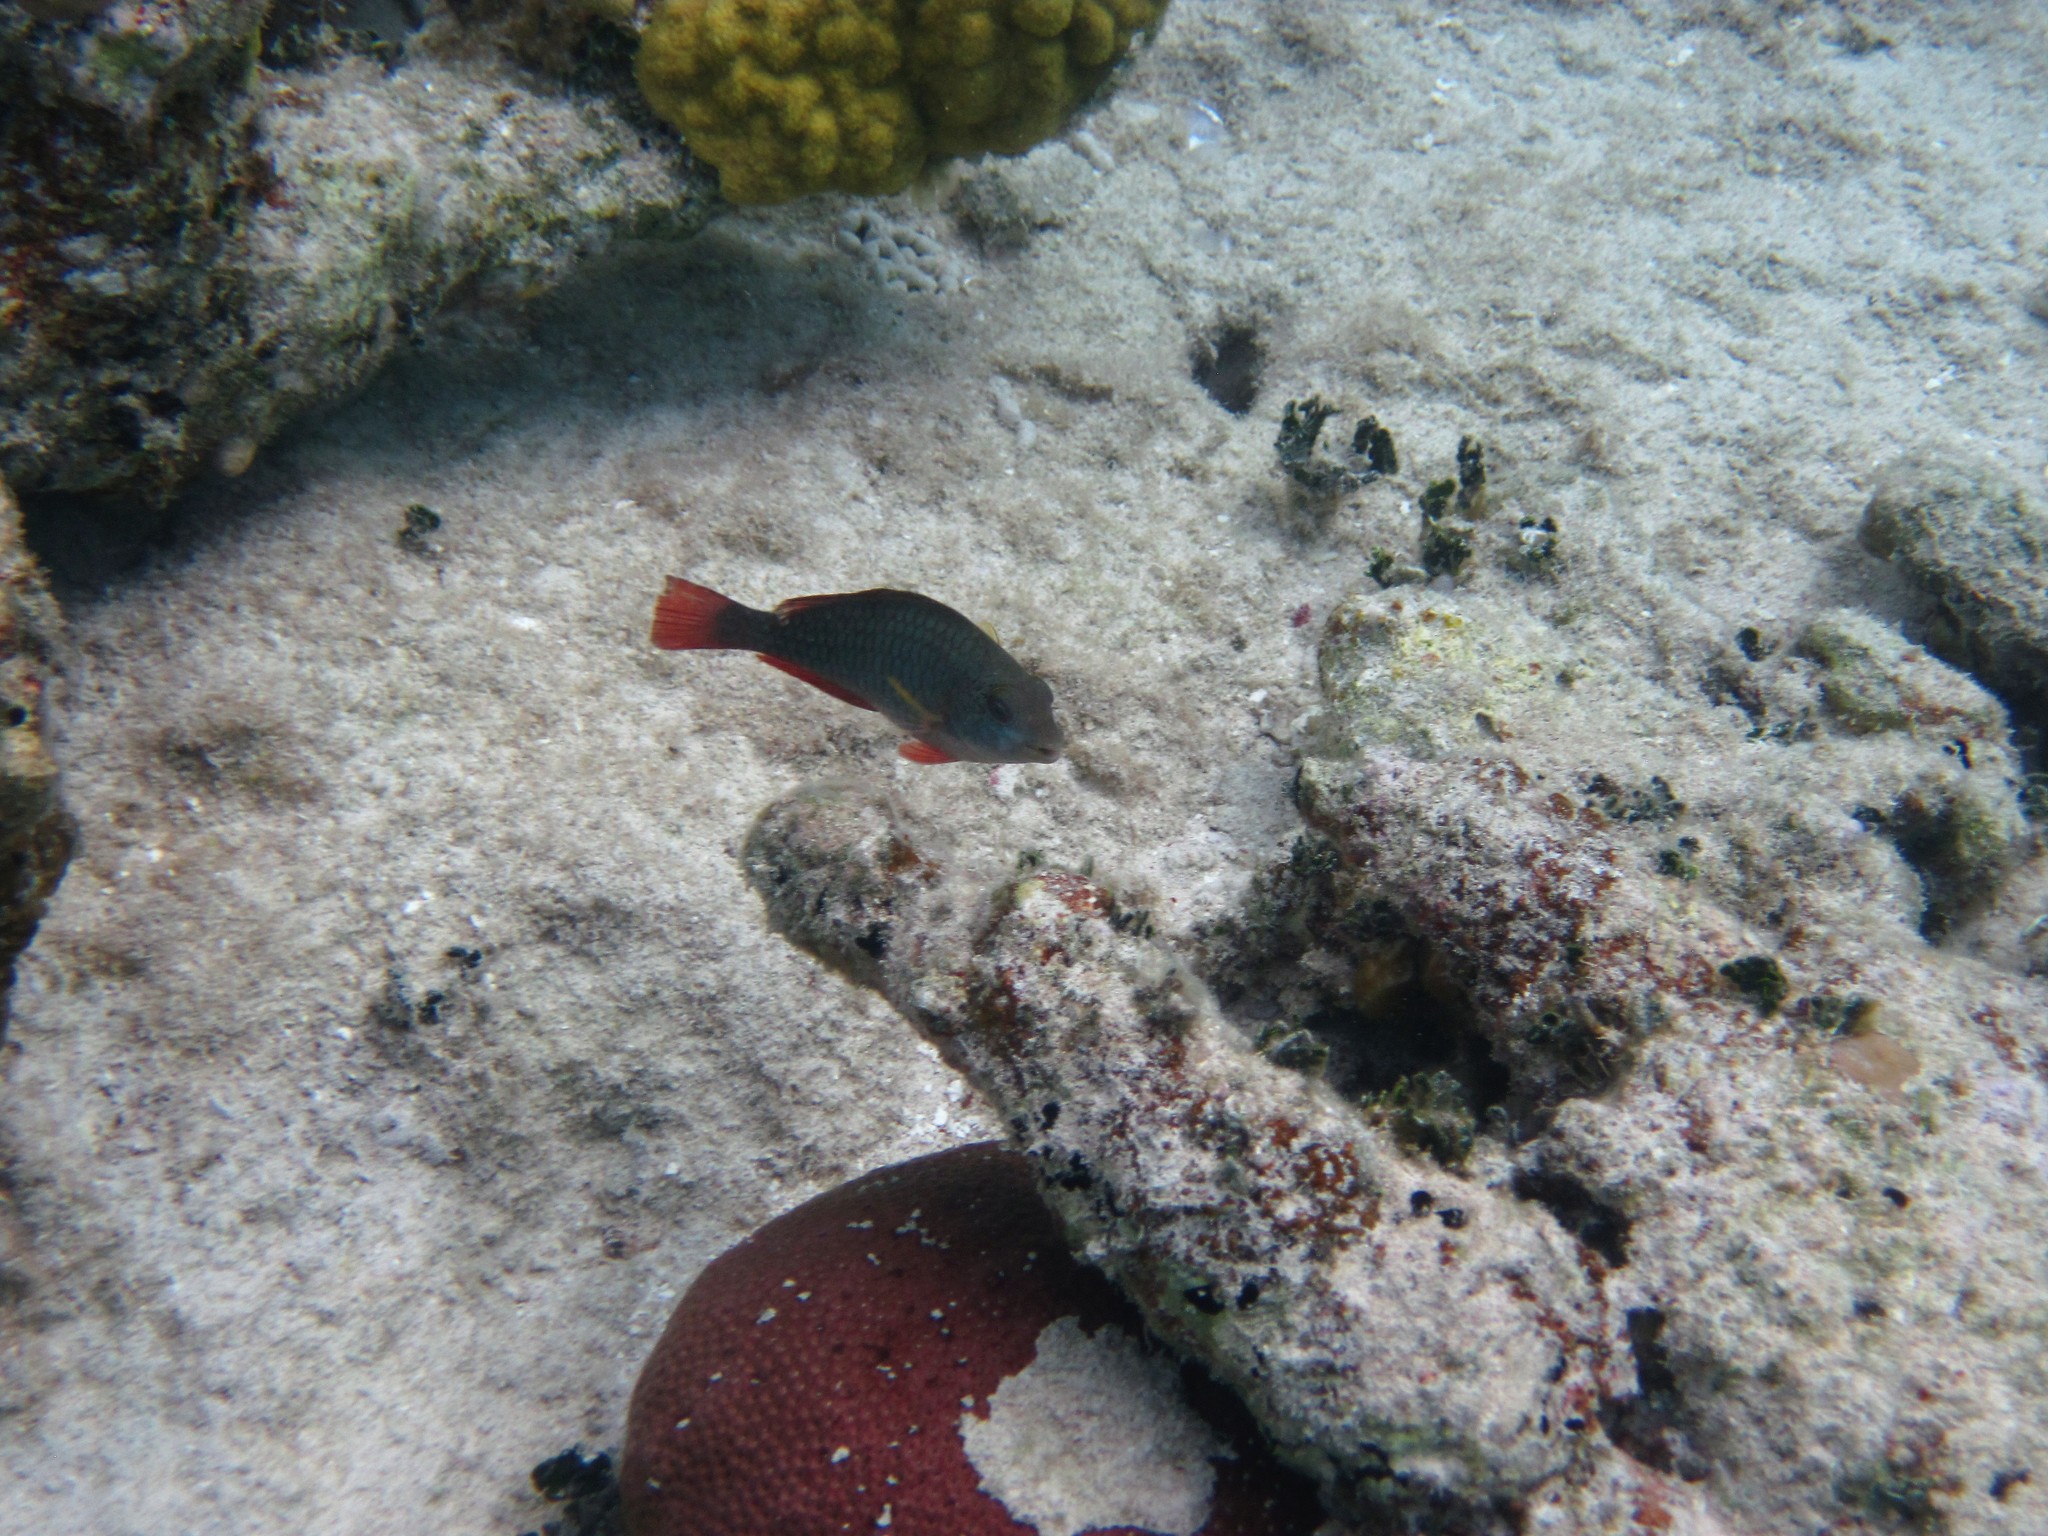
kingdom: Animalia
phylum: Chordata
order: Perciformes
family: Scaridae
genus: Sparisoma
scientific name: Sparisoma aurofrenatum
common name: Redband parrotfish
